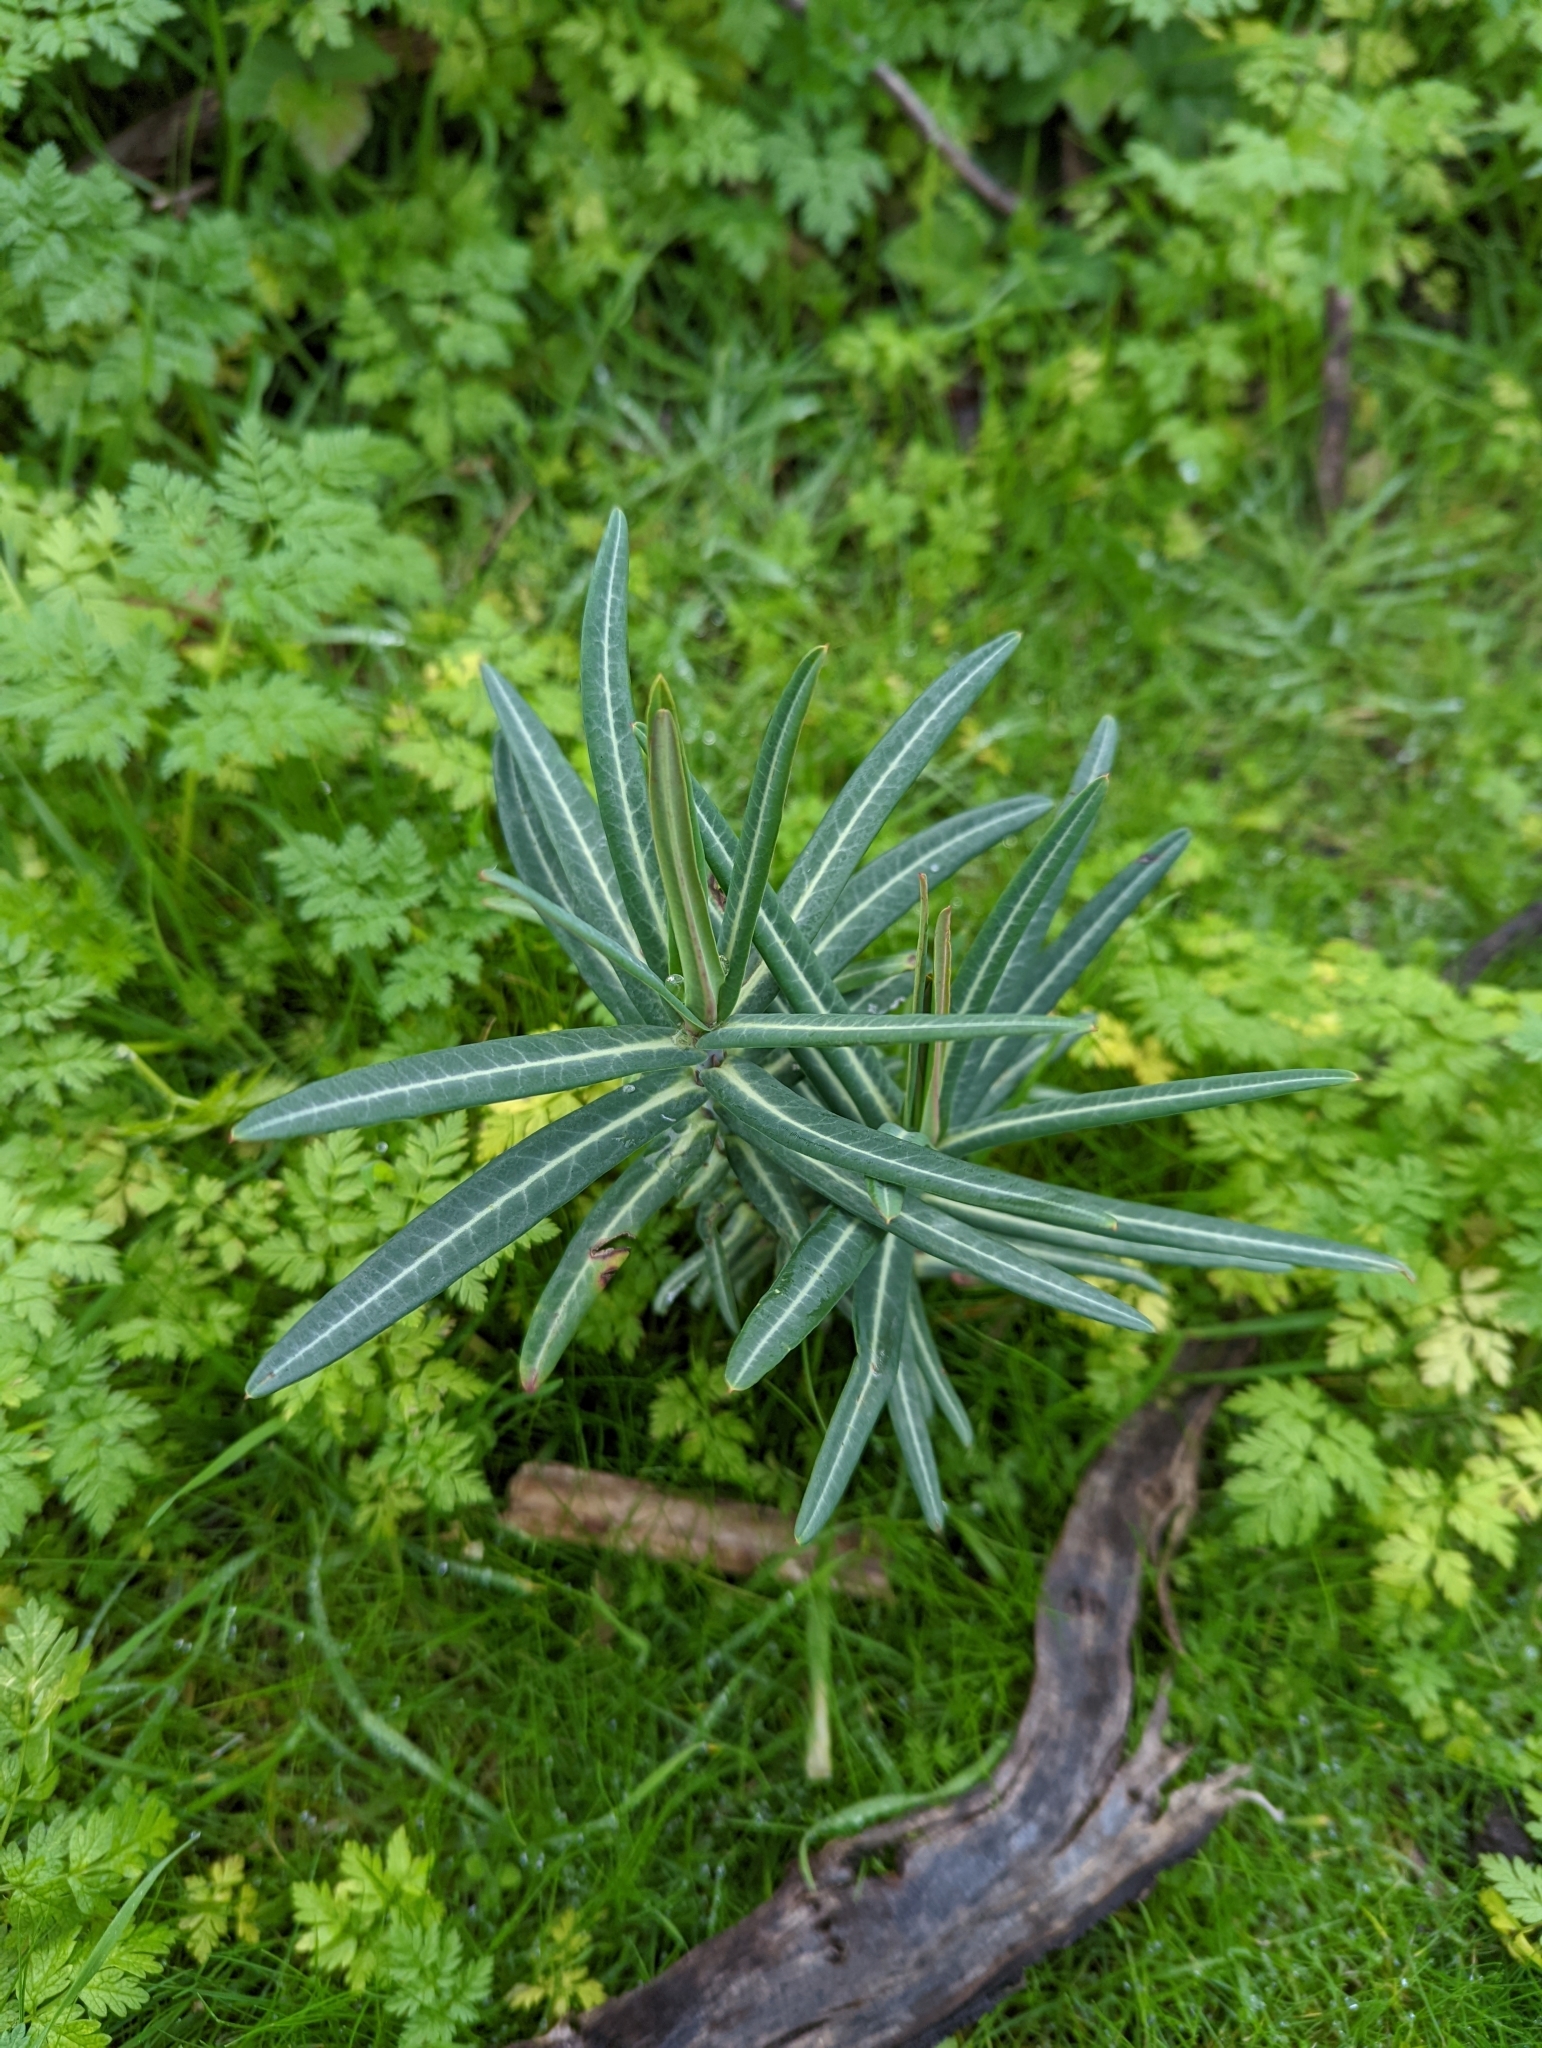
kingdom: Plantae
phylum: Tracheophyta
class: Magnoliopsida
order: Malpighiales
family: Euphorbiaceae
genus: Euphorbia
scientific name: Euphorbia lathyris
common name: Caper spurge
